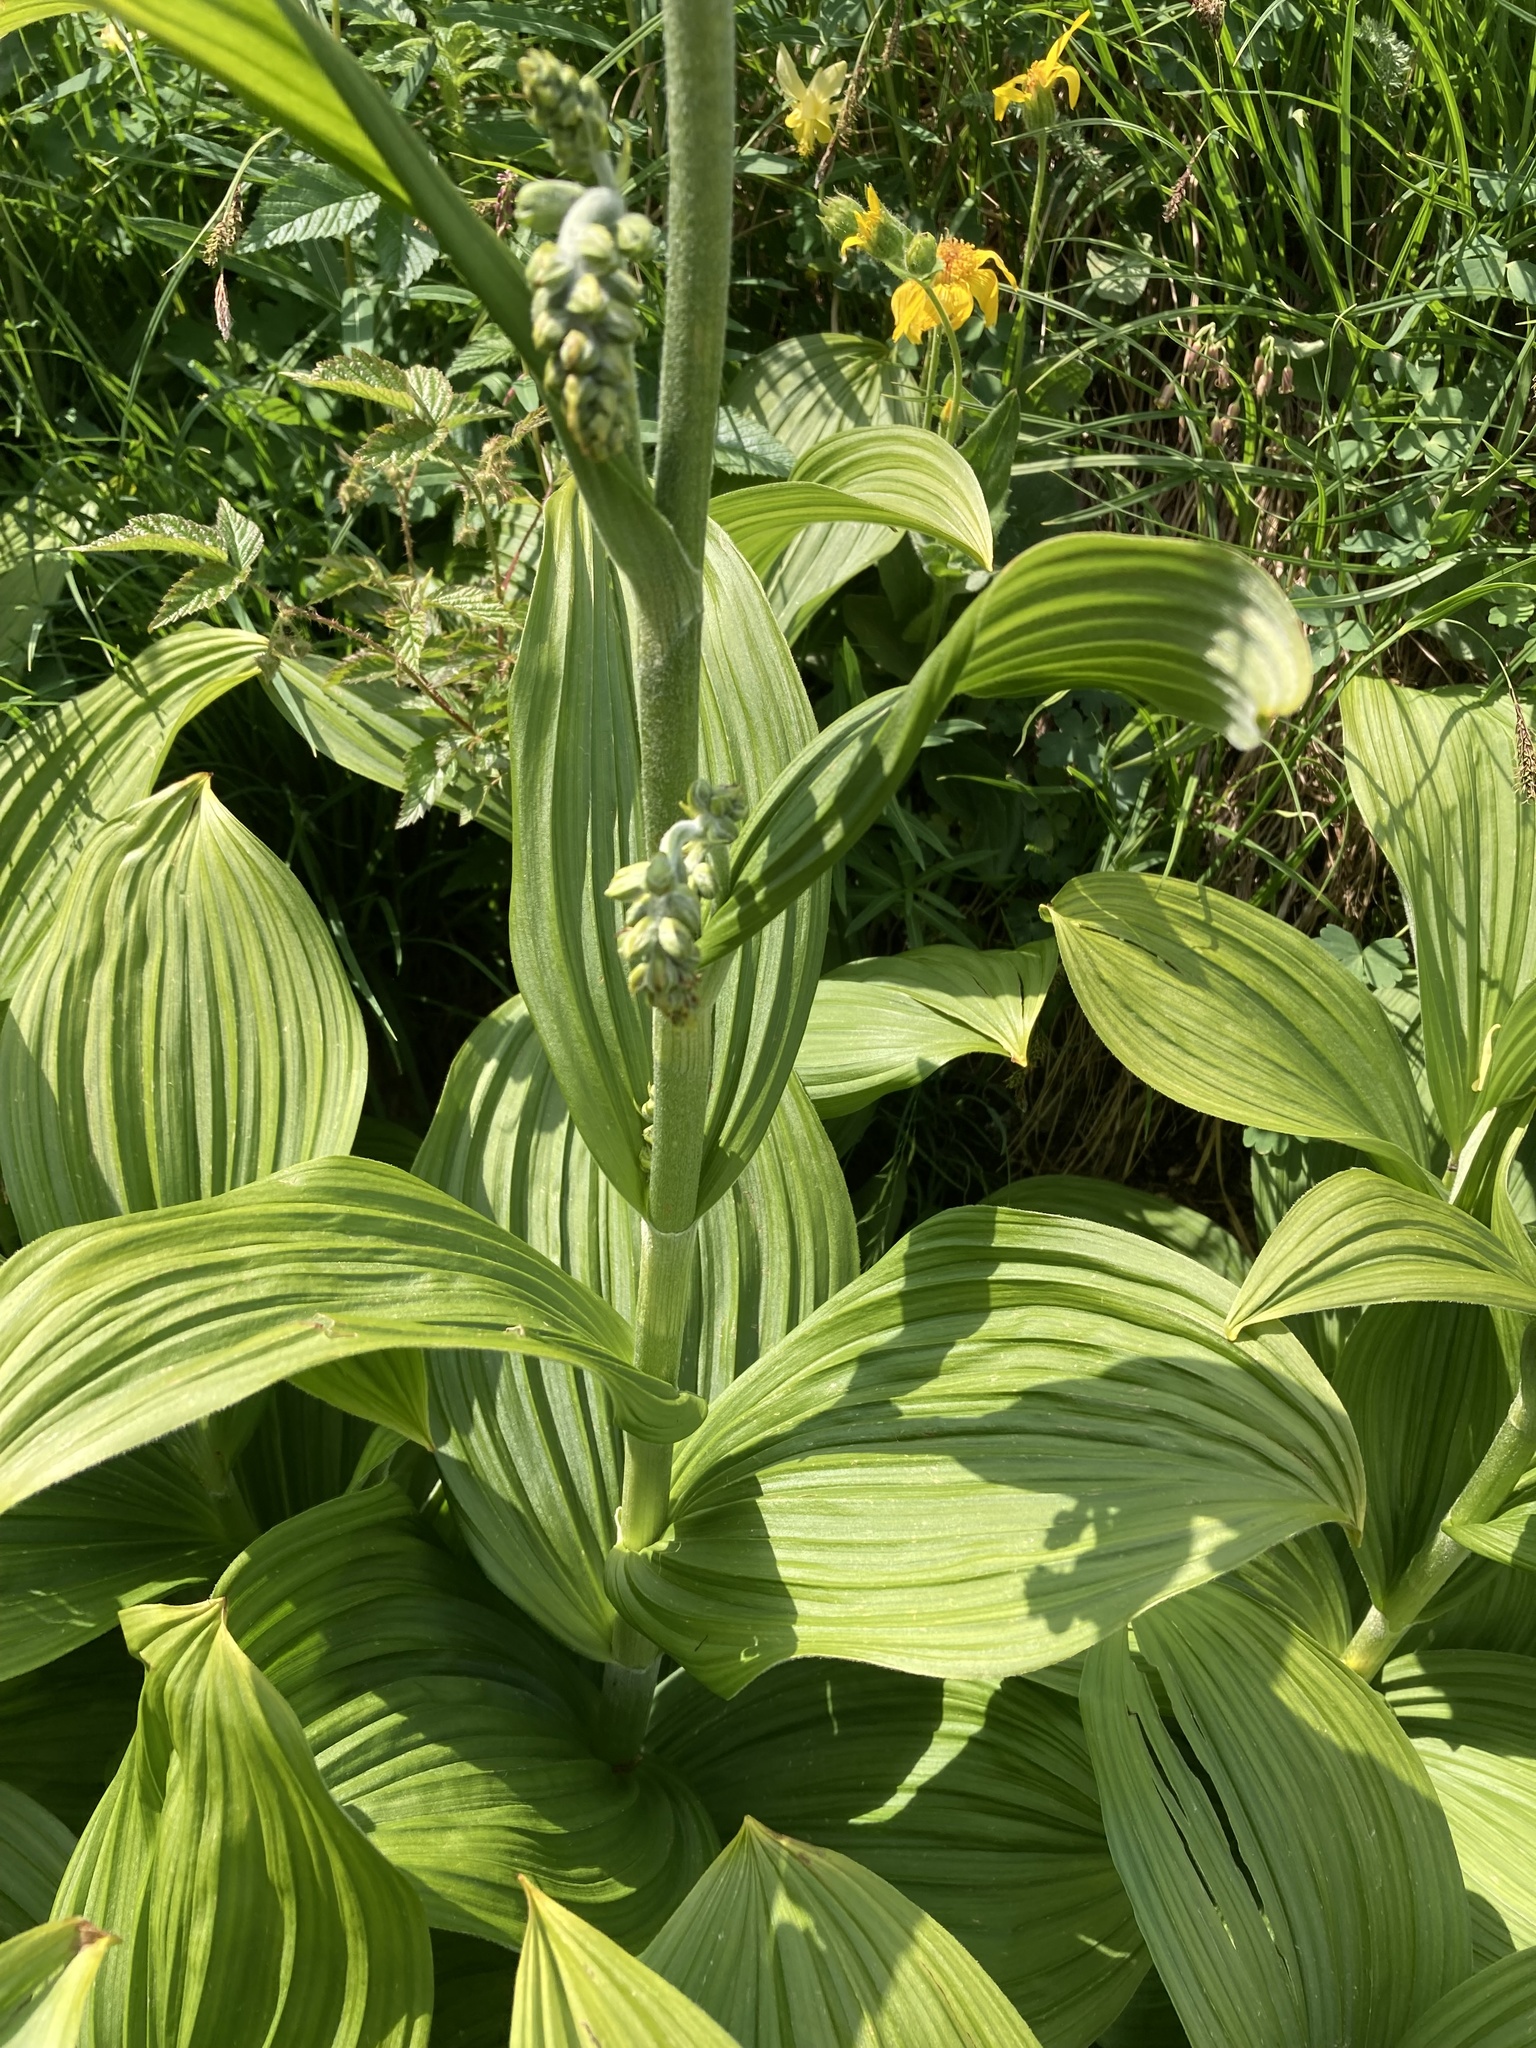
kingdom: Plantae
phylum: Tracheophyta
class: Liliopsida
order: Liliales
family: Melanthiaceae
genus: Veratrum
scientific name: Veratrum viride
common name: American false hellebore
